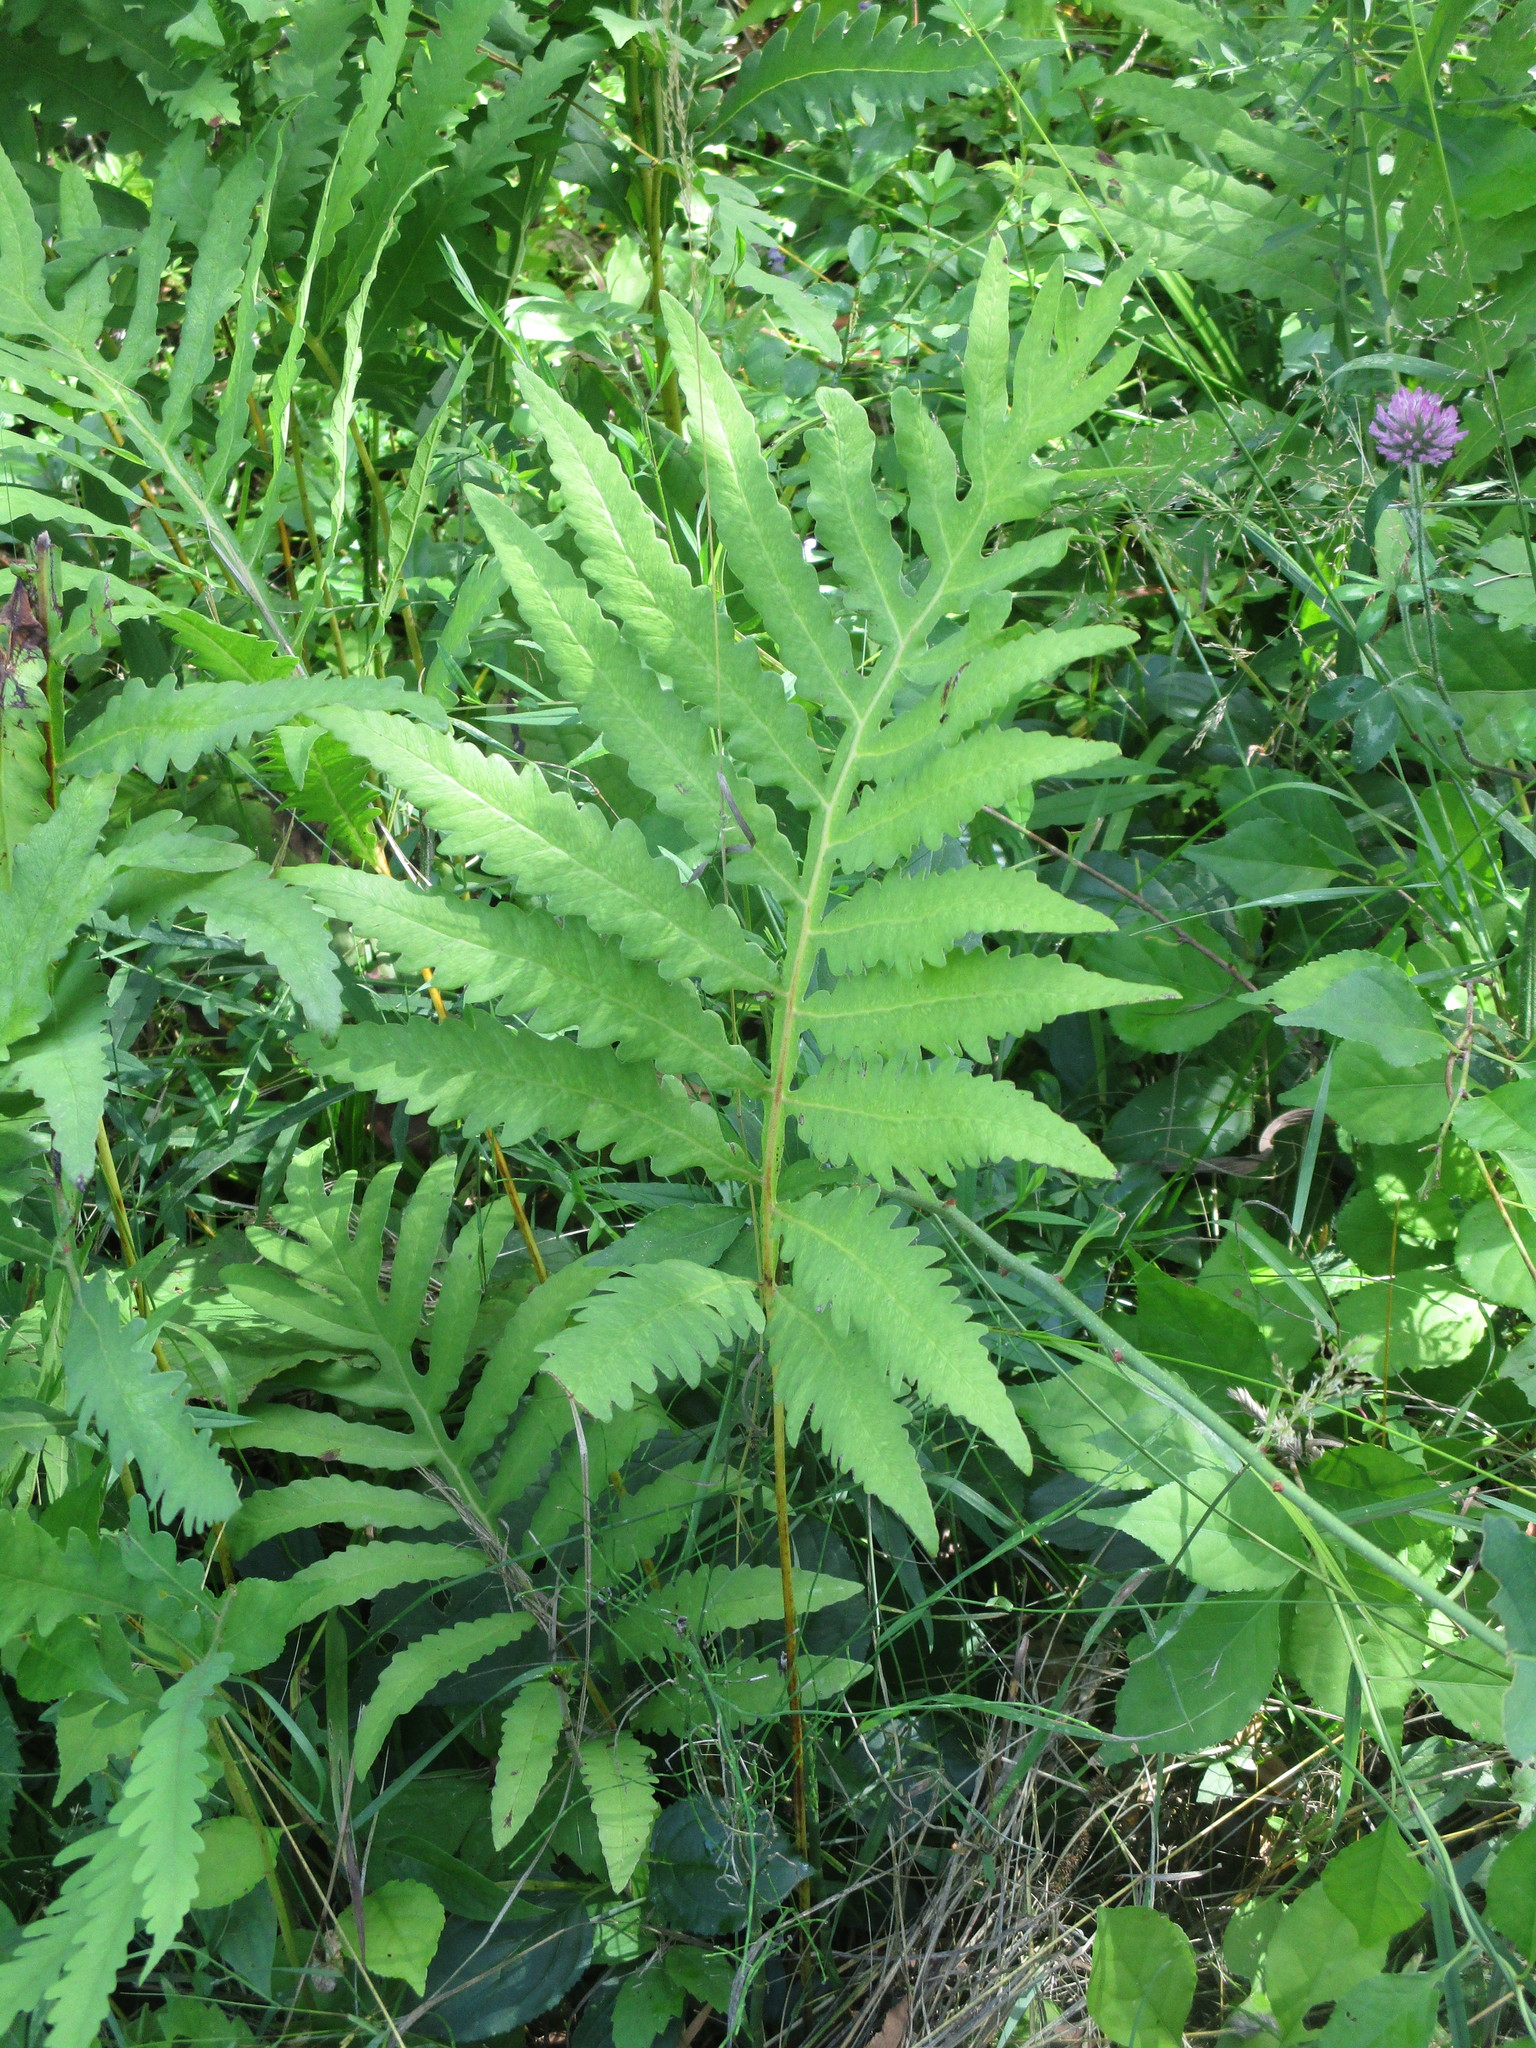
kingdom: Plantae
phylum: Tracheophyta
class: Polypodiopsida
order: Polypodiales
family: Onocleaceae
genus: Onoclea
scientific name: Onoclea sensibilis
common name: Sensitive fern
